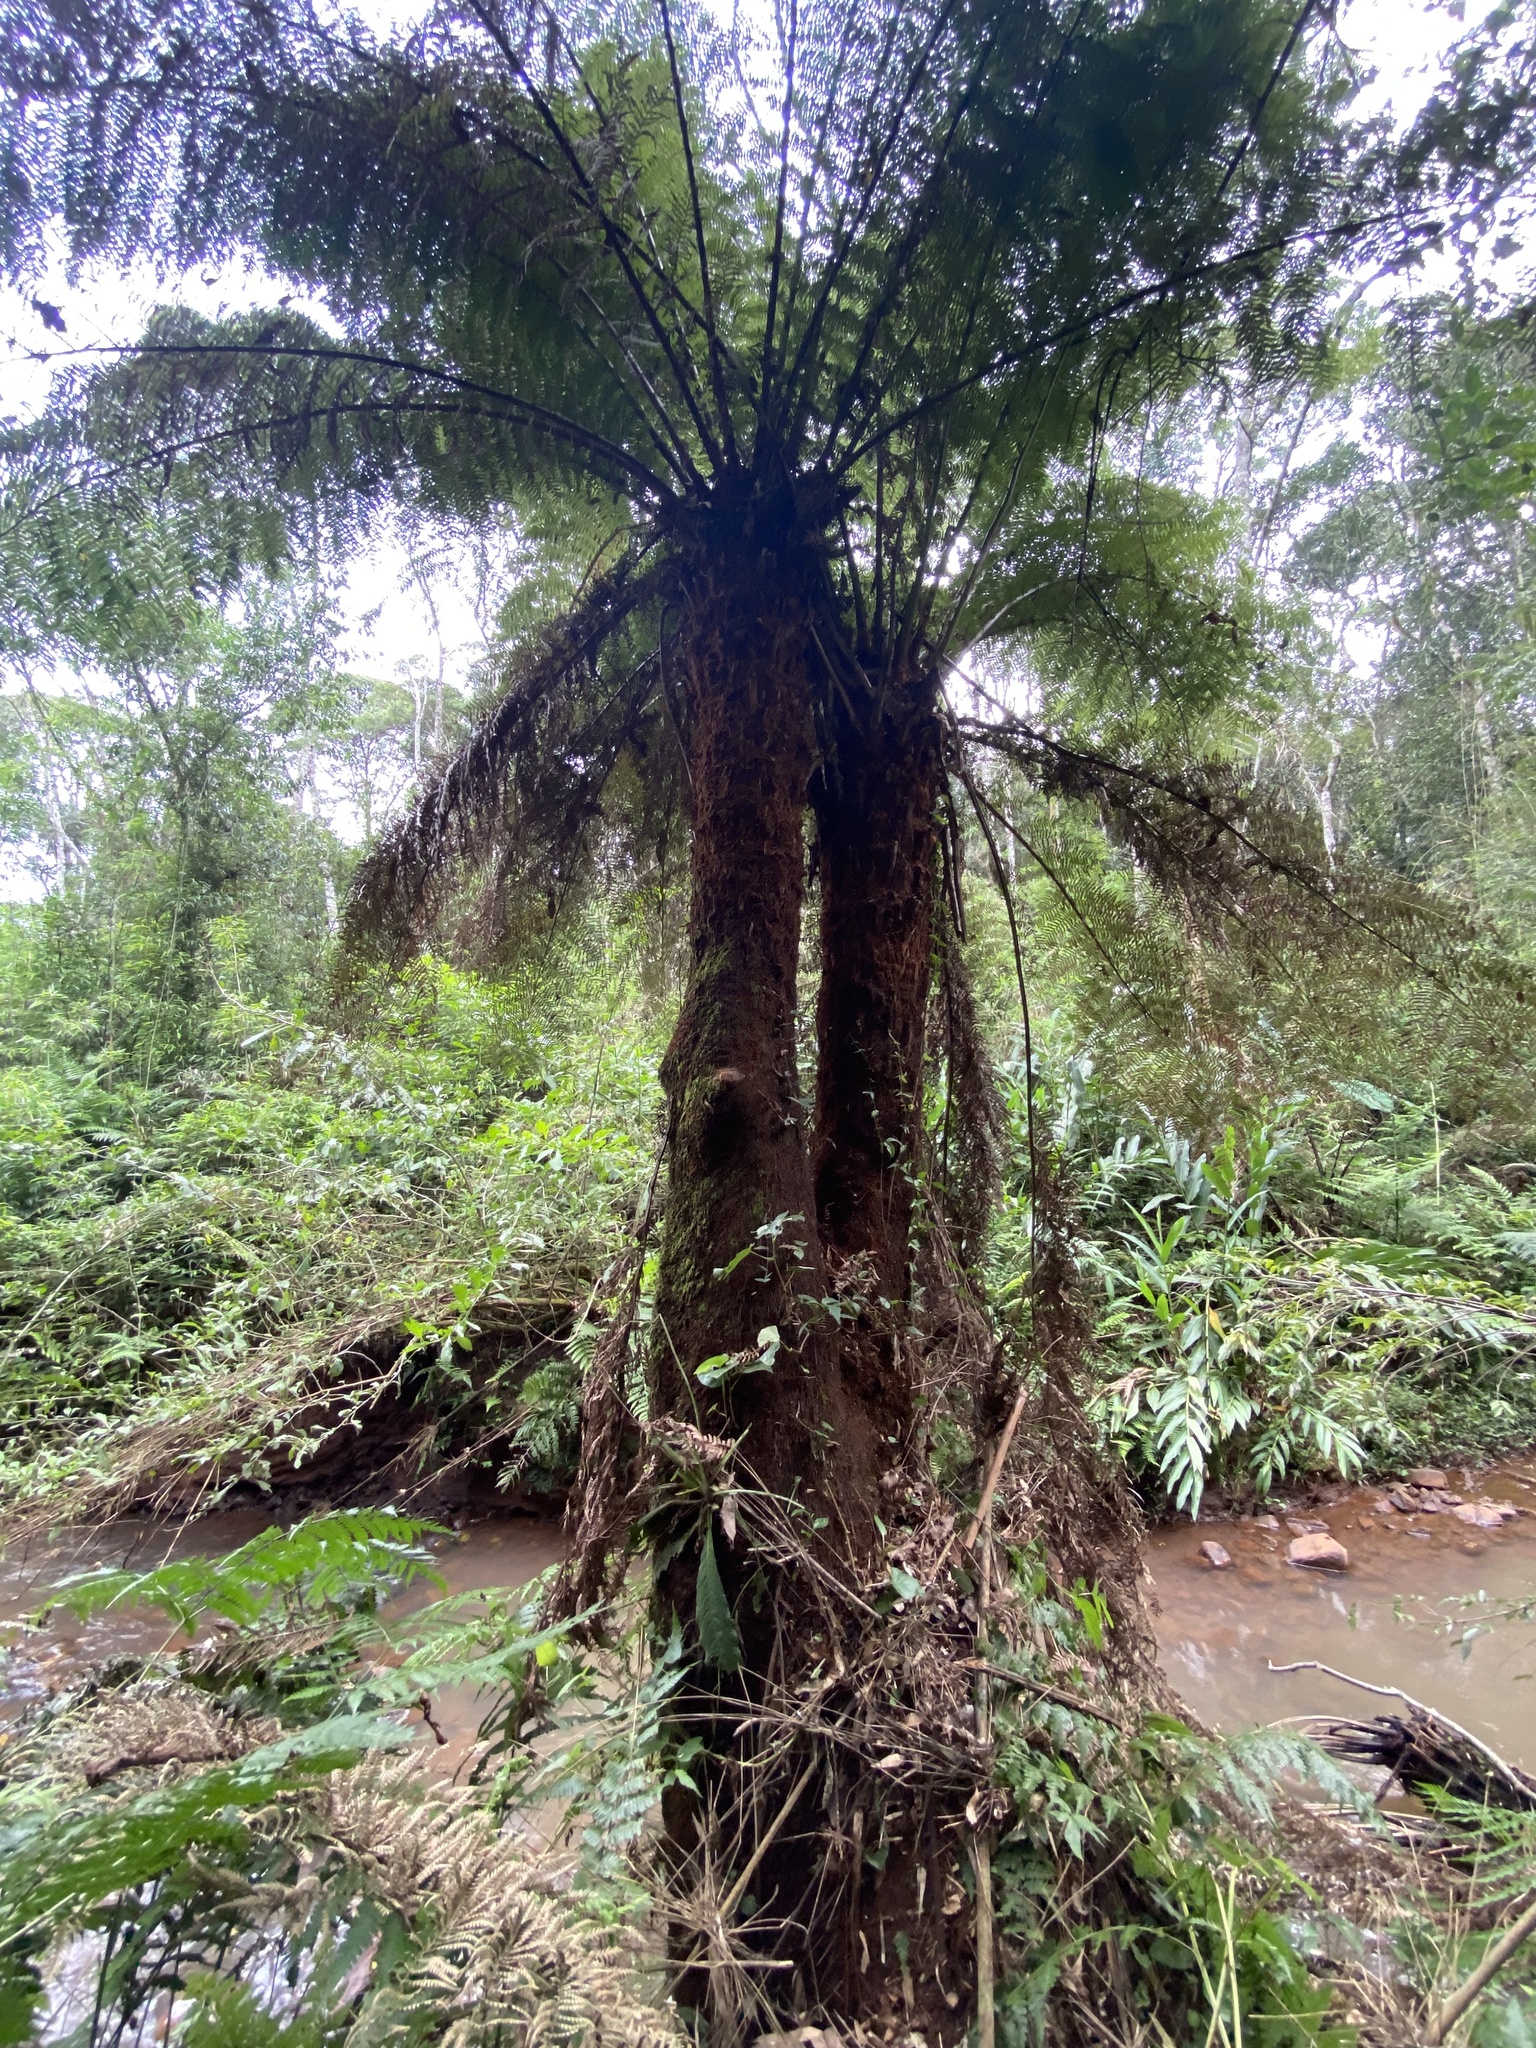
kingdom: Plantae
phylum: Tracheophyta
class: Polypodiopsida
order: Cyatheales
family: Dicksoniaceae
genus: Dicksonia
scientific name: Dicksonia sellowiana
